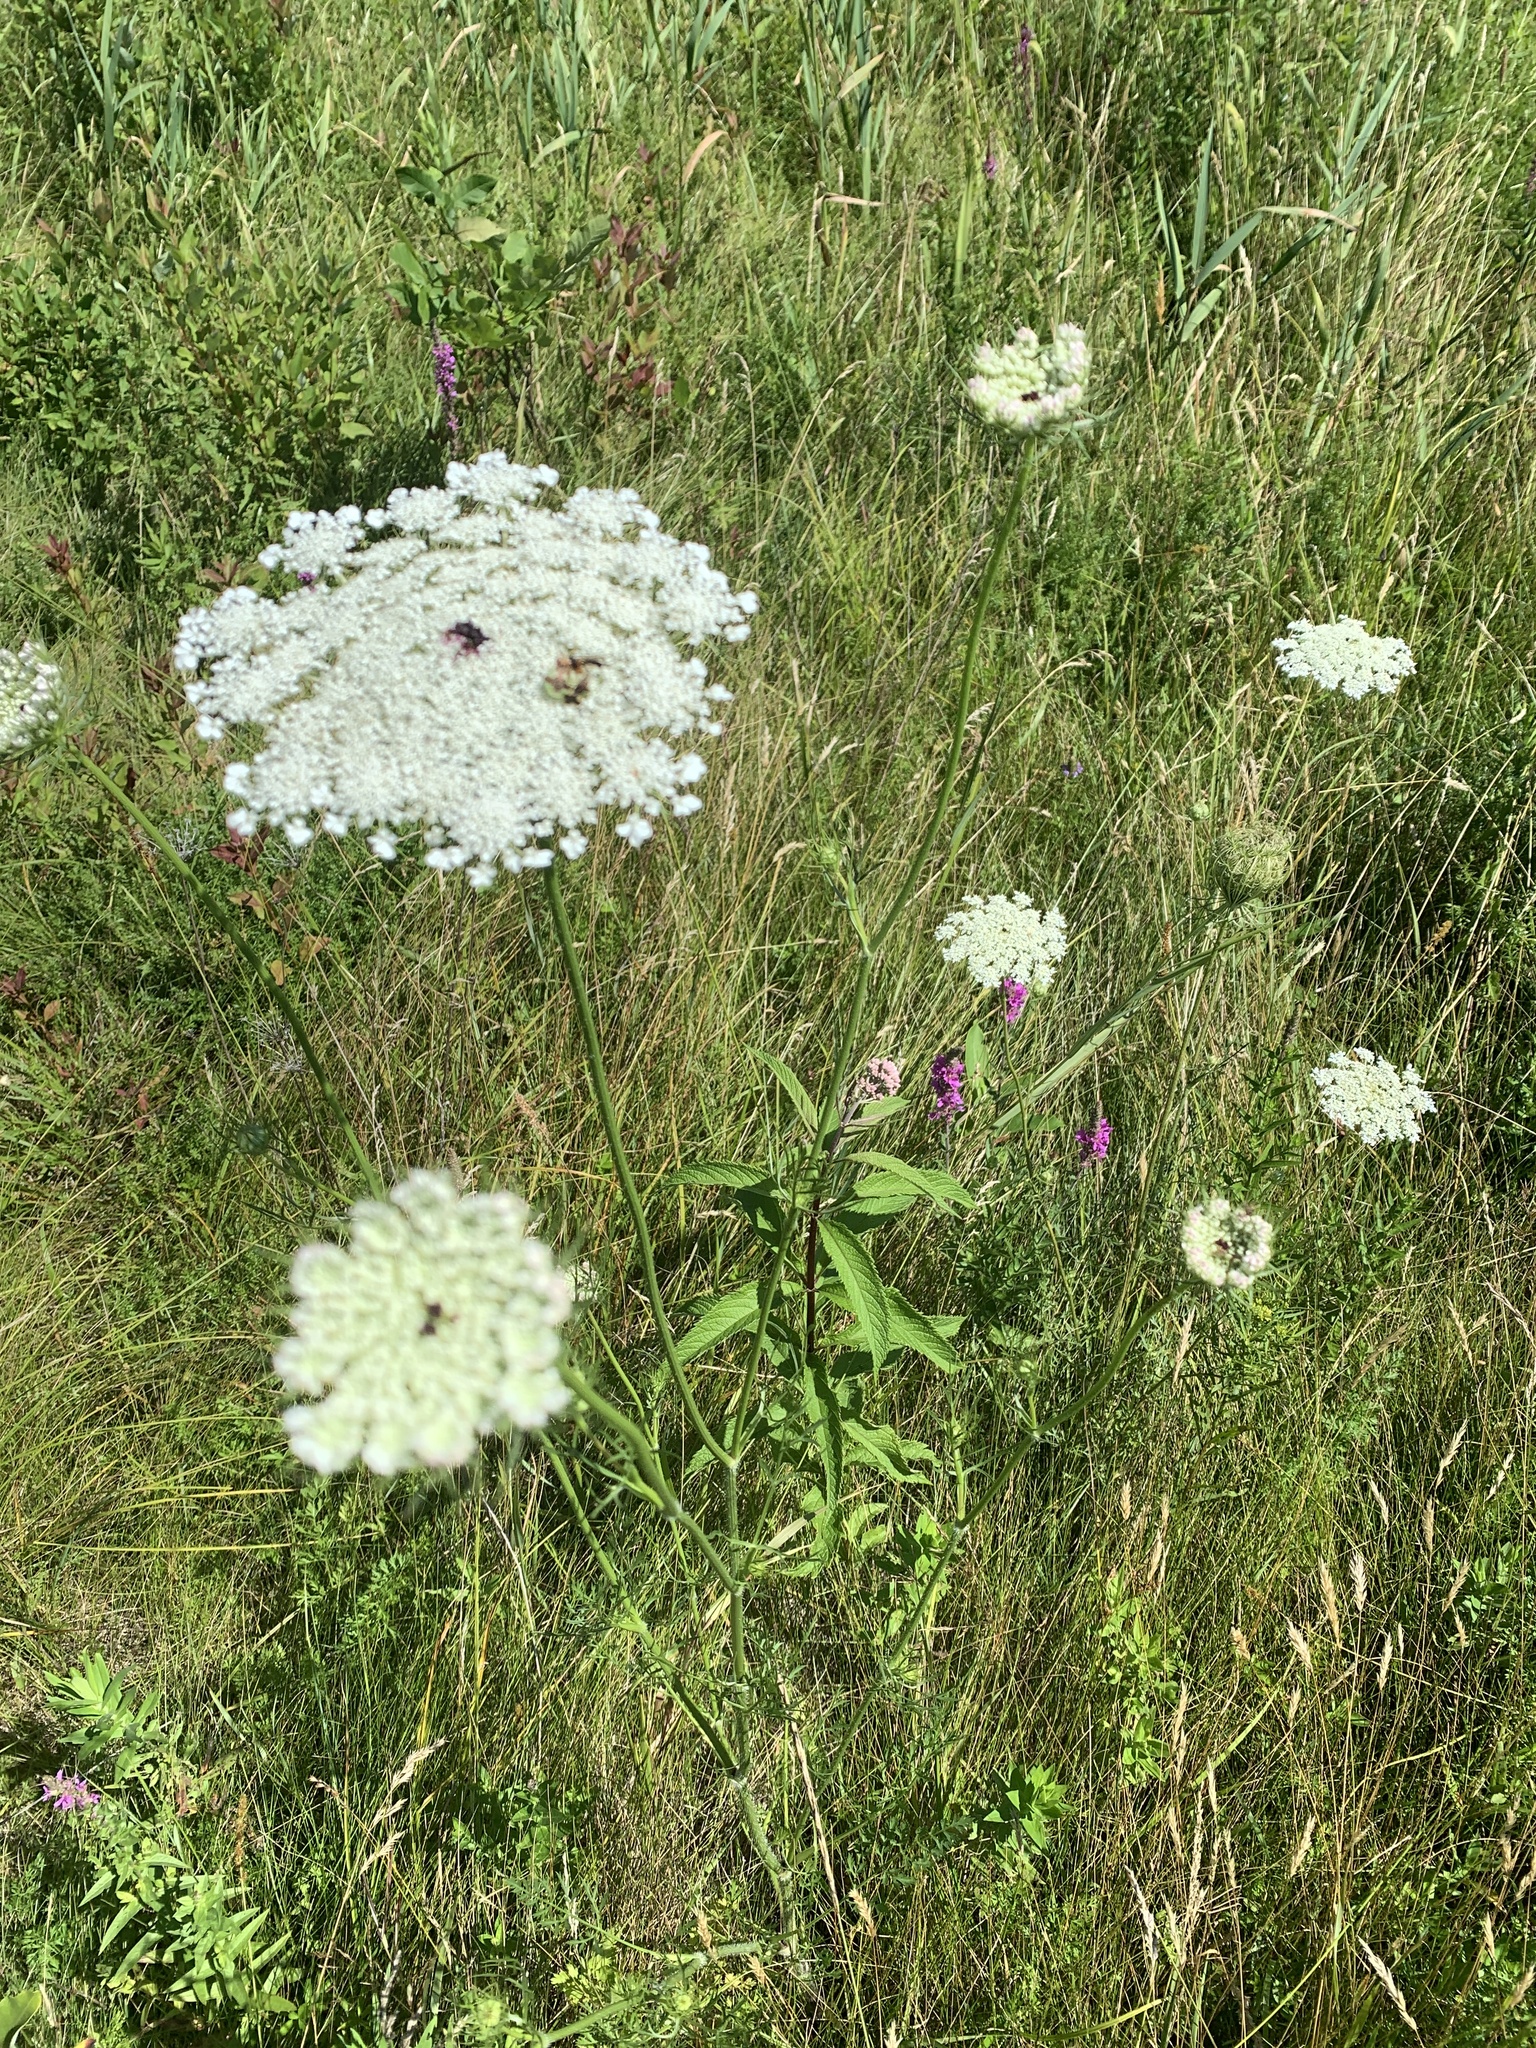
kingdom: Plantae
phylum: Tracheophyta
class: Magnoliopsida
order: Apiales
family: Apiaceae
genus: Daucus
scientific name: Daucus carota
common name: Wild carrot
